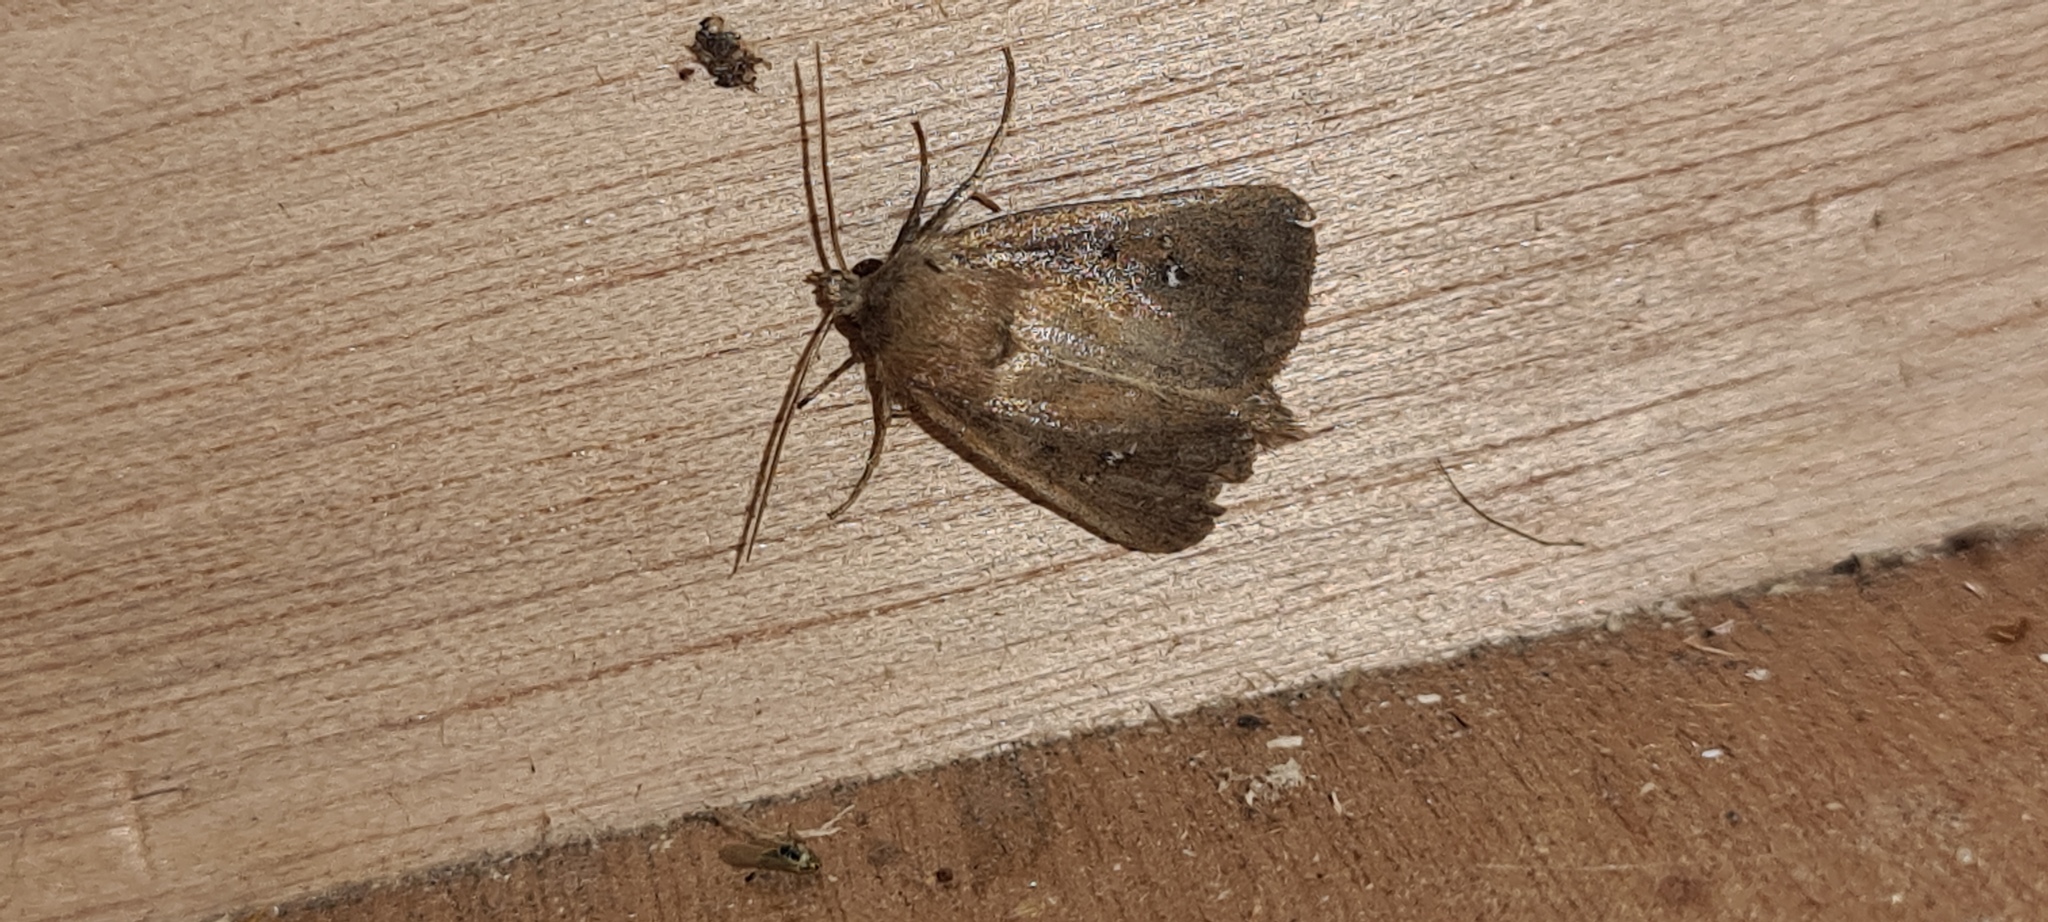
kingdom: Animalia
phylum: Arthropoda
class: Insecta
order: Lepidoptera
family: Noctuidae
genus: Lenisa
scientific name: Lenisa geminipuncta
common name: Twin-spotted wainscot
